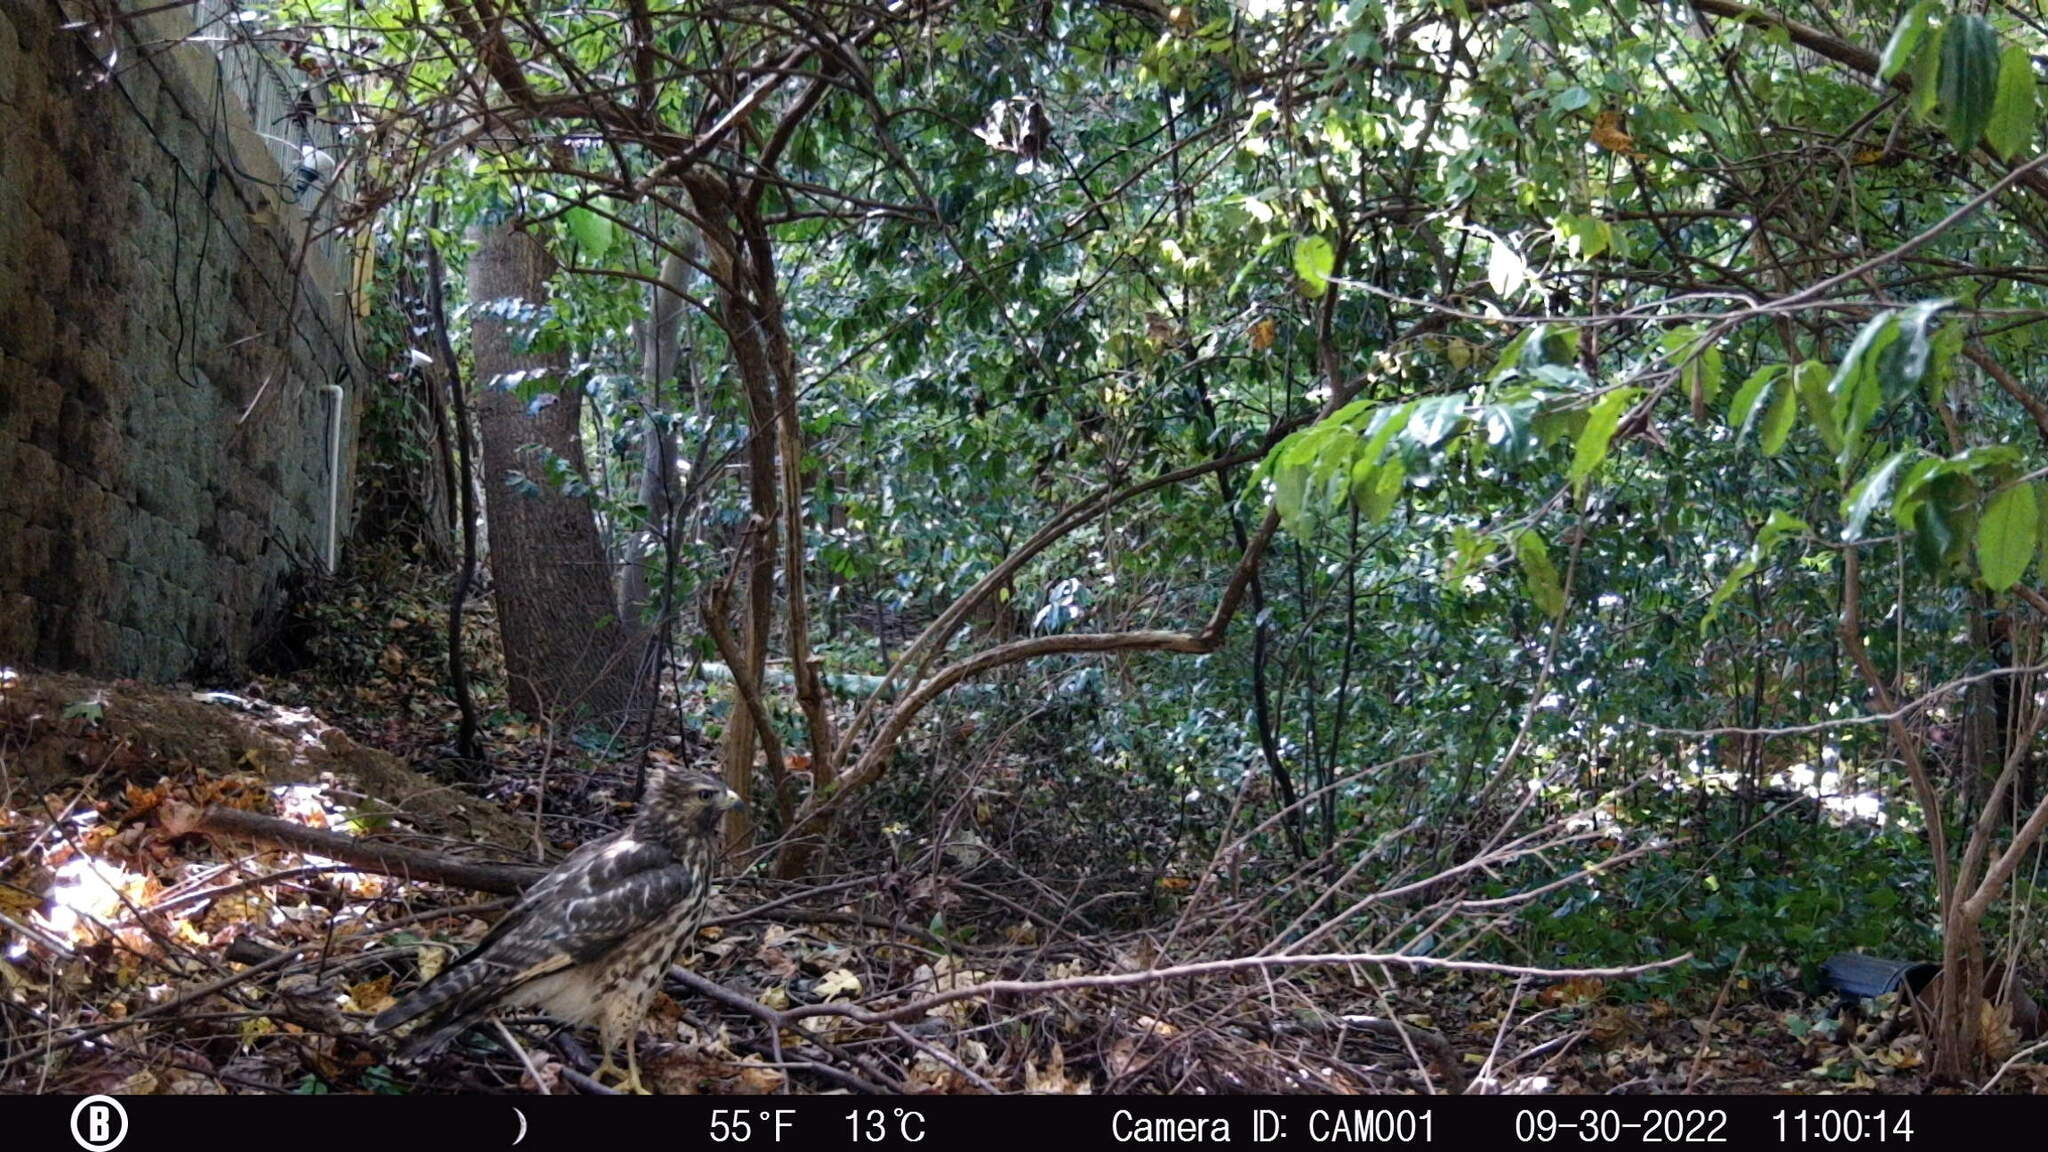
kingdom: Animalia
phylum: Chordata
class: Aves
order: Accipitriformes
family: Accipitridae
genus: Buteo
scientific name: Buteo lineatus
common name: Red-shouldered hawk
